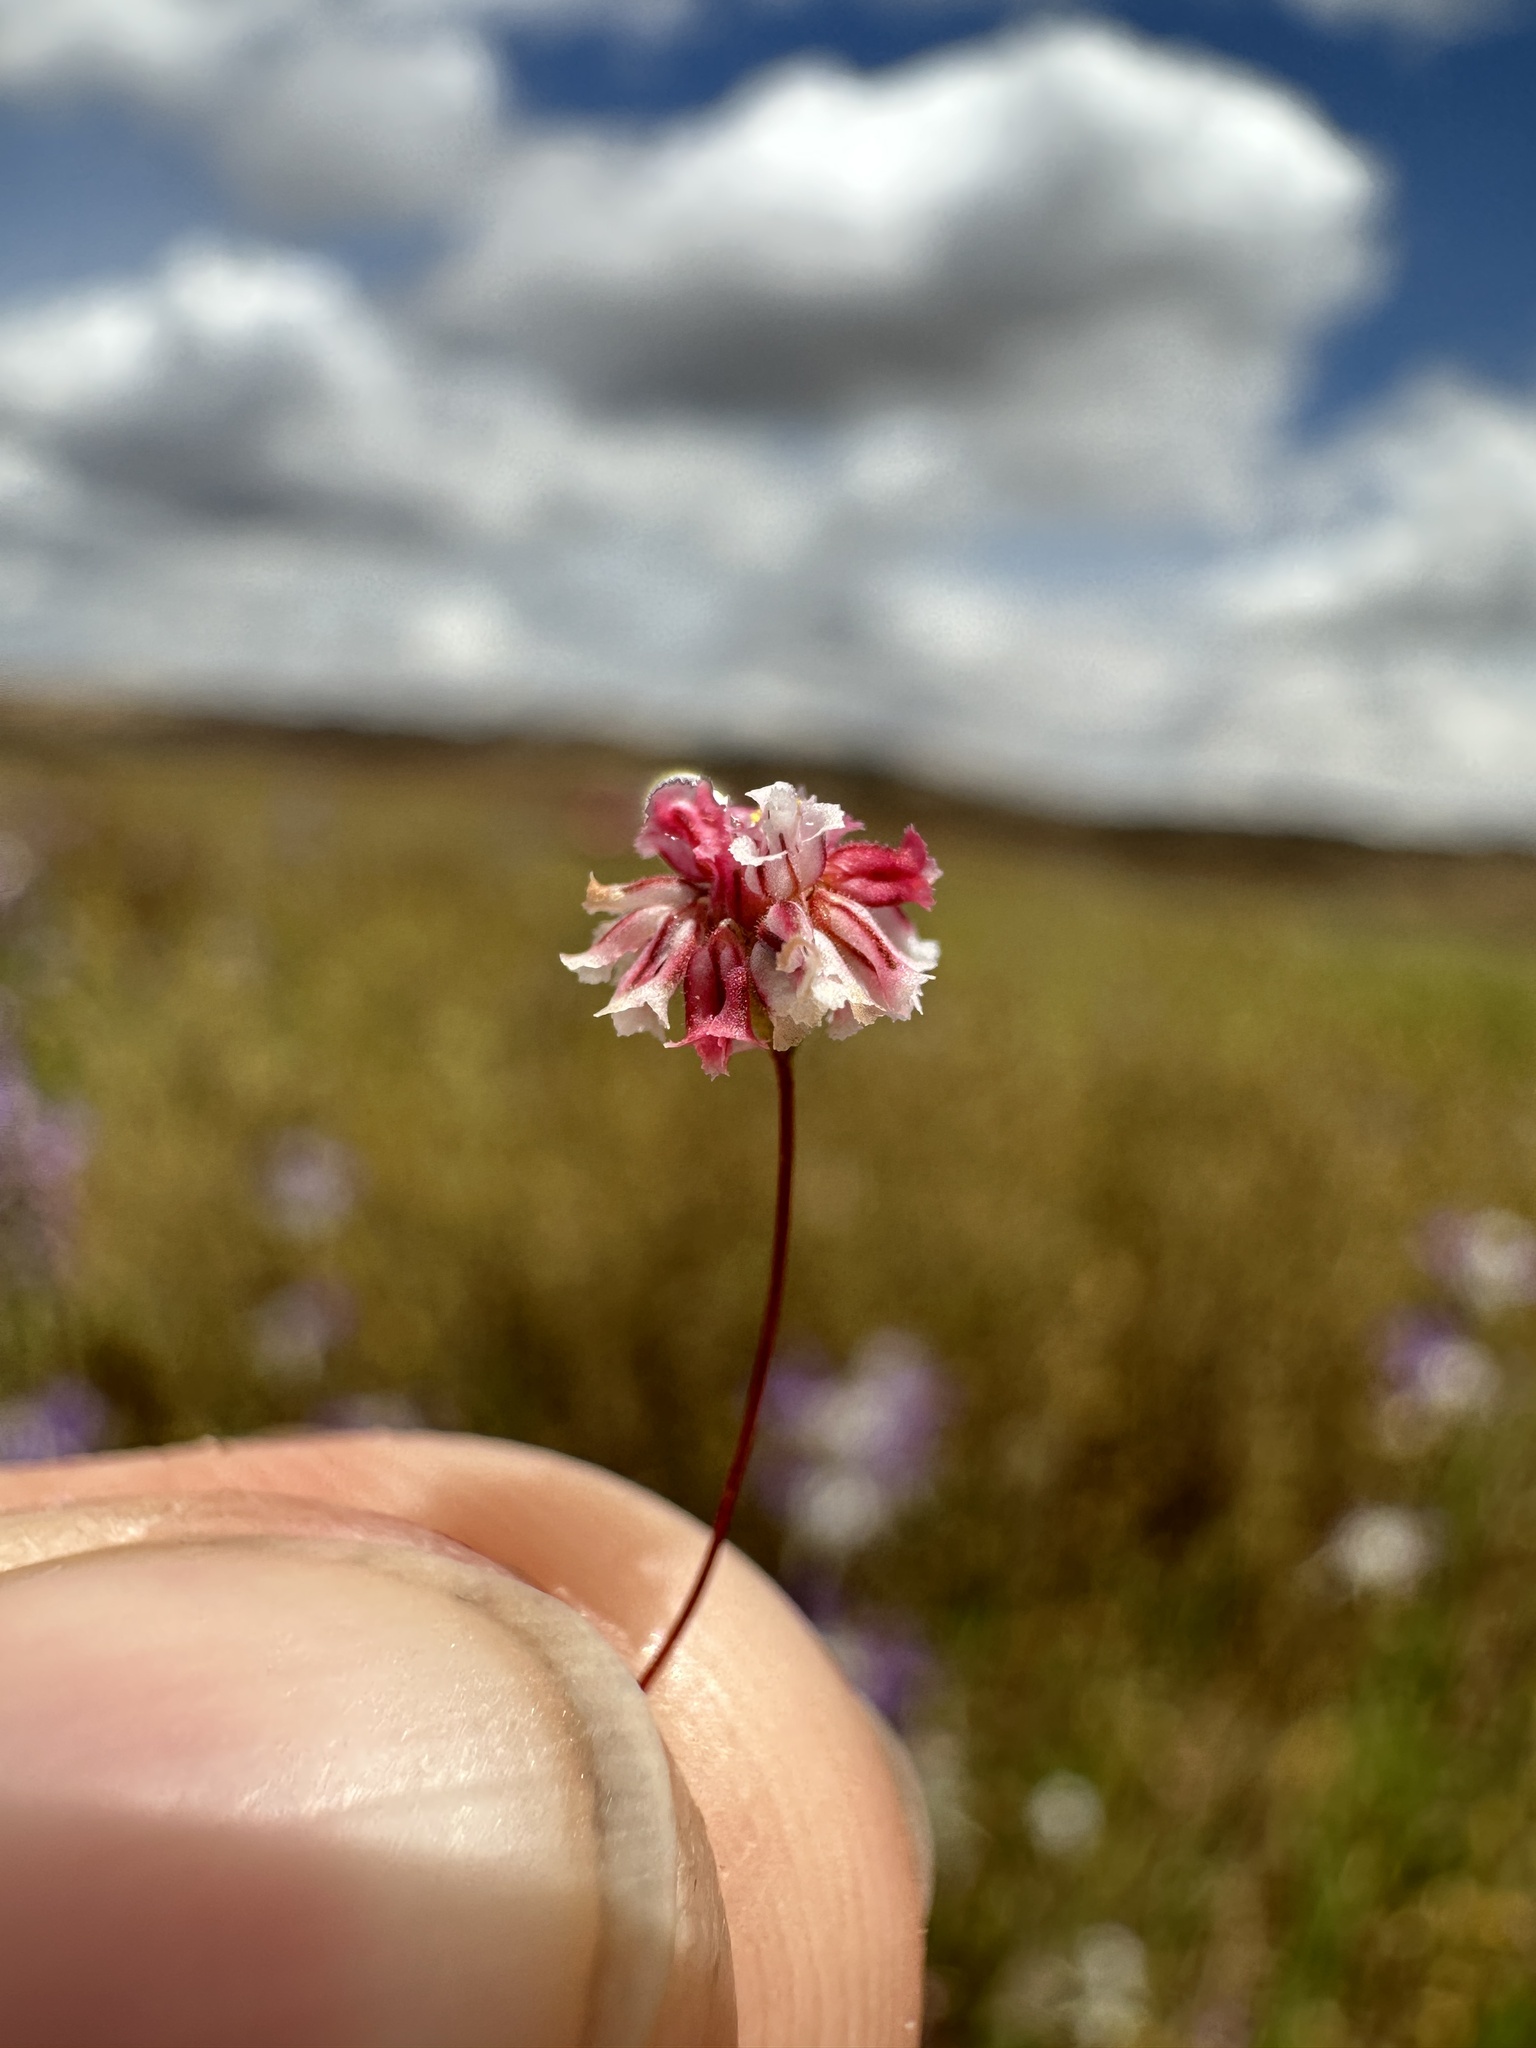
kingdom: Plantae
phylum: Tracheophyta
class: Magnoliopsida
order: Caryophyllales
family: Polygonaceae
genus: Eriogonum
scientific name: Eriogonum gracillimum
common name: Rose-and-white wild buckwheat
